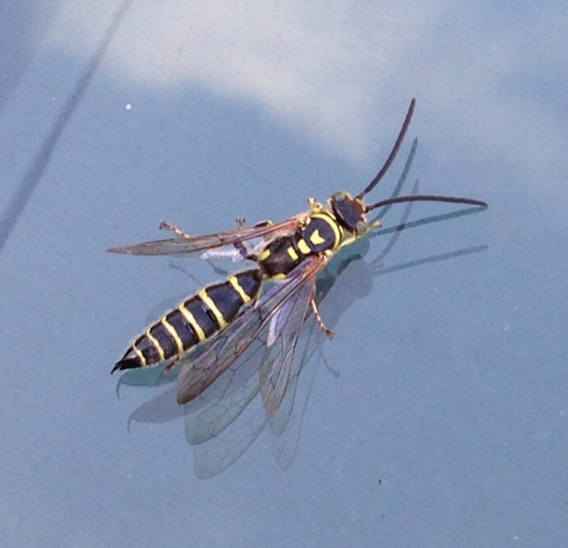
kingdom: Animalia
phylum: Arthropoda
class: Insecta
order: Hymenoptera
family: Tiphiidae
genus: Myzinum
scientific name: Myzinum
